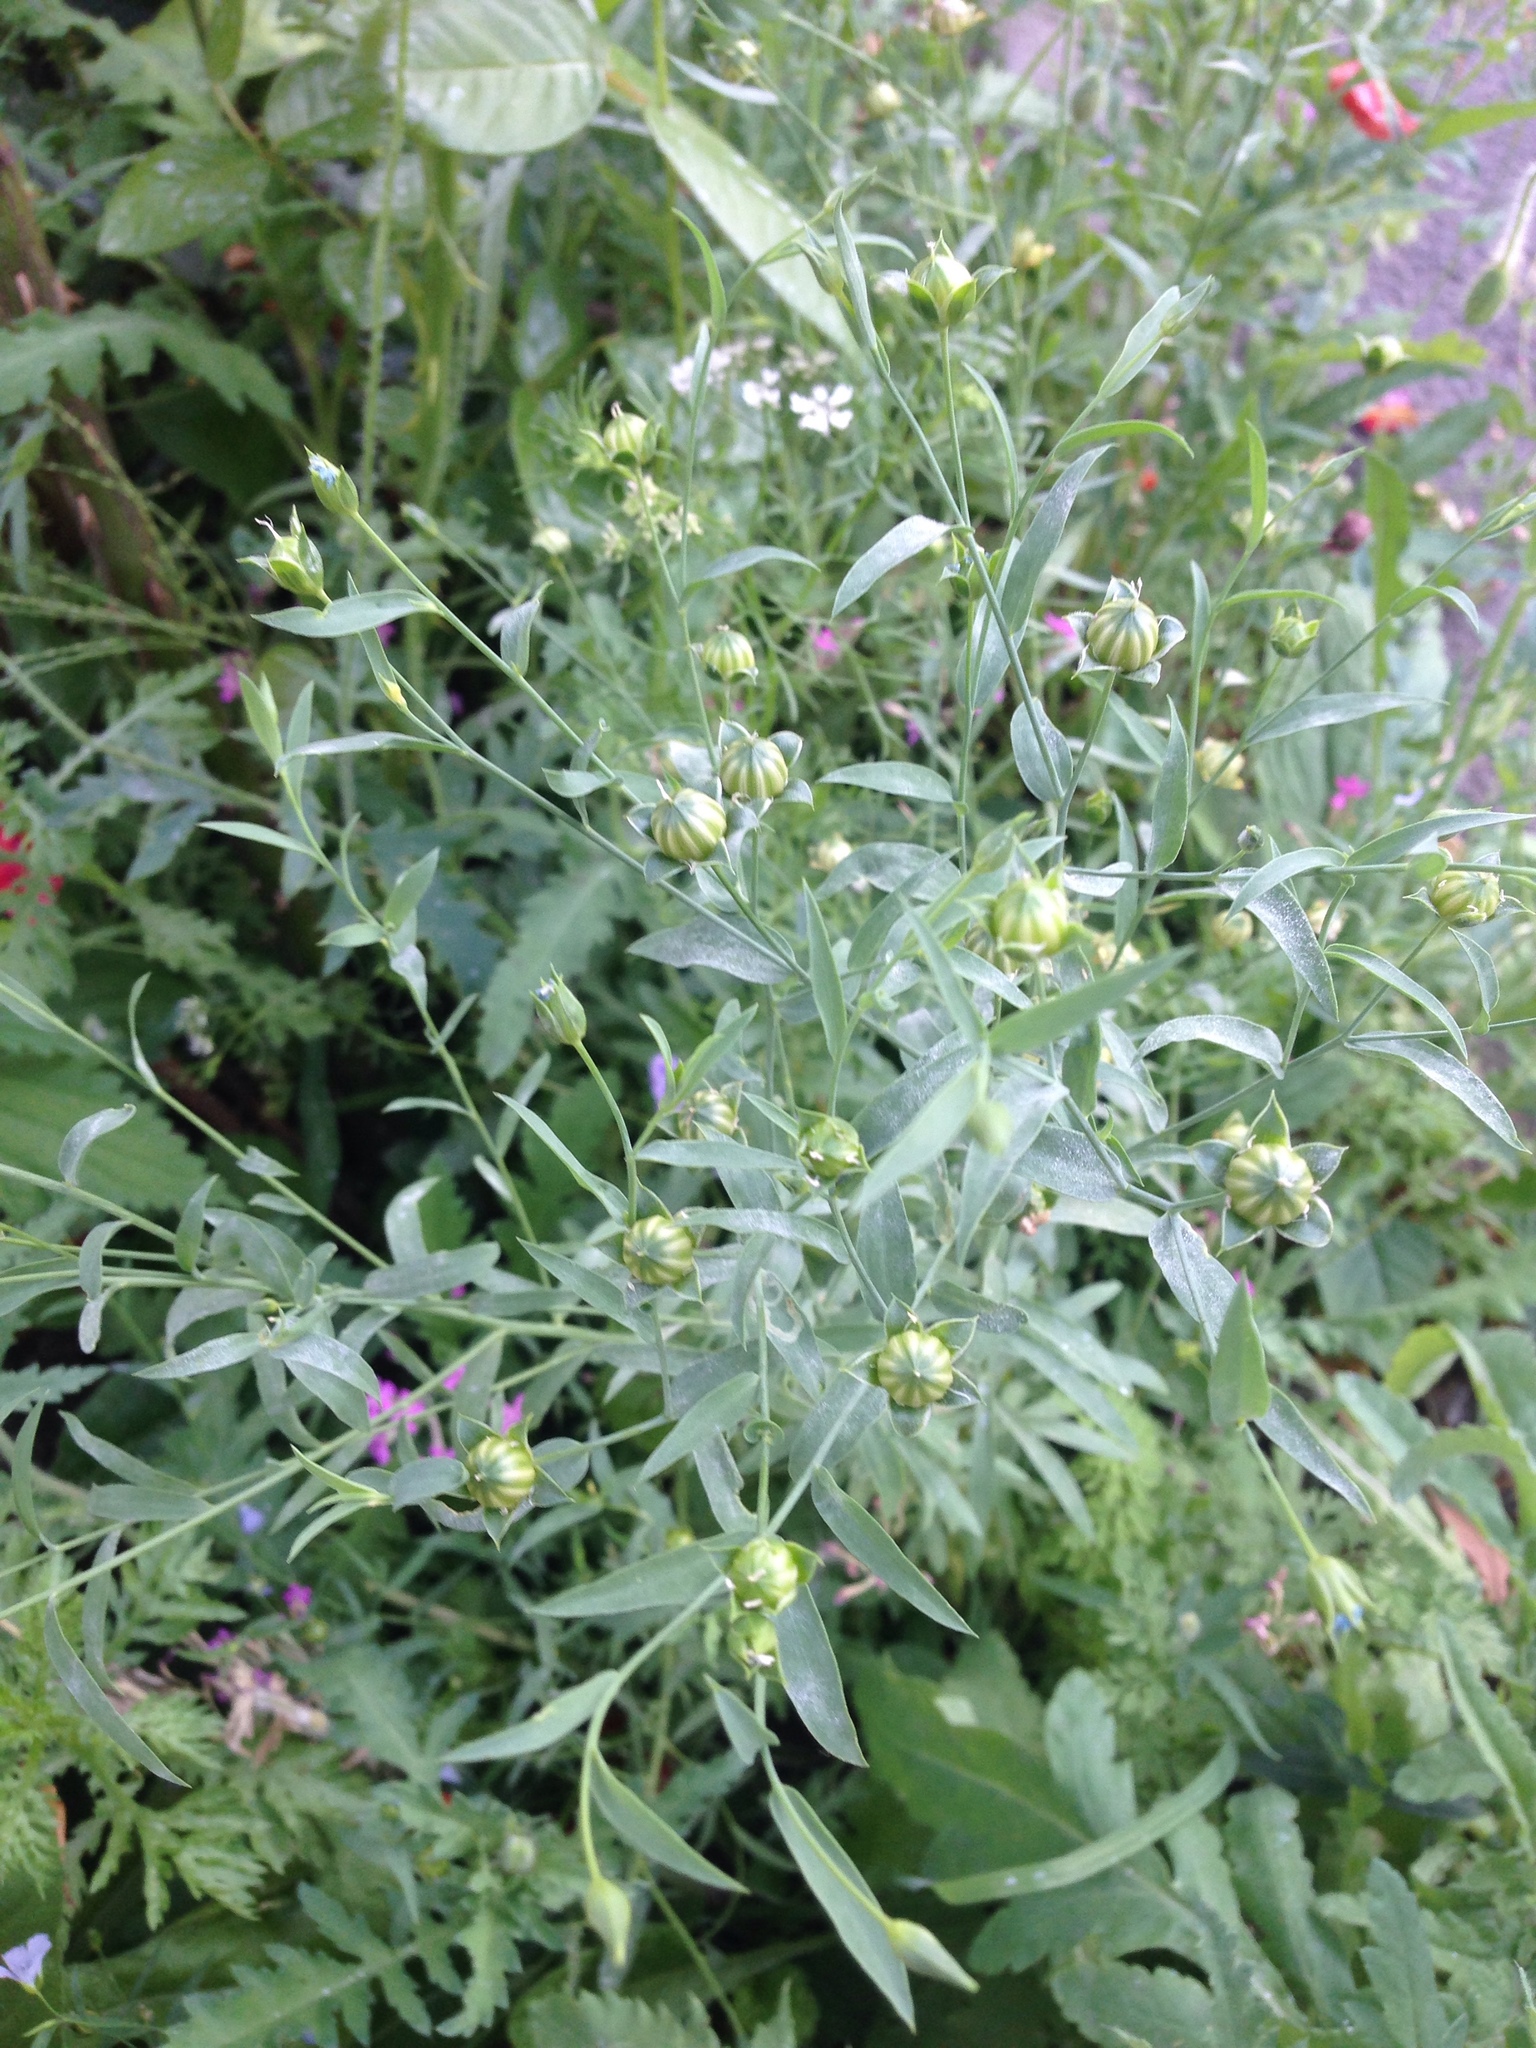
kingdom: Plantae
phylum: Tracheophyta
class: Magnoliopsida
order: Malpighiales
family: Linaceae
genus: Linum
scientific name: Linum
